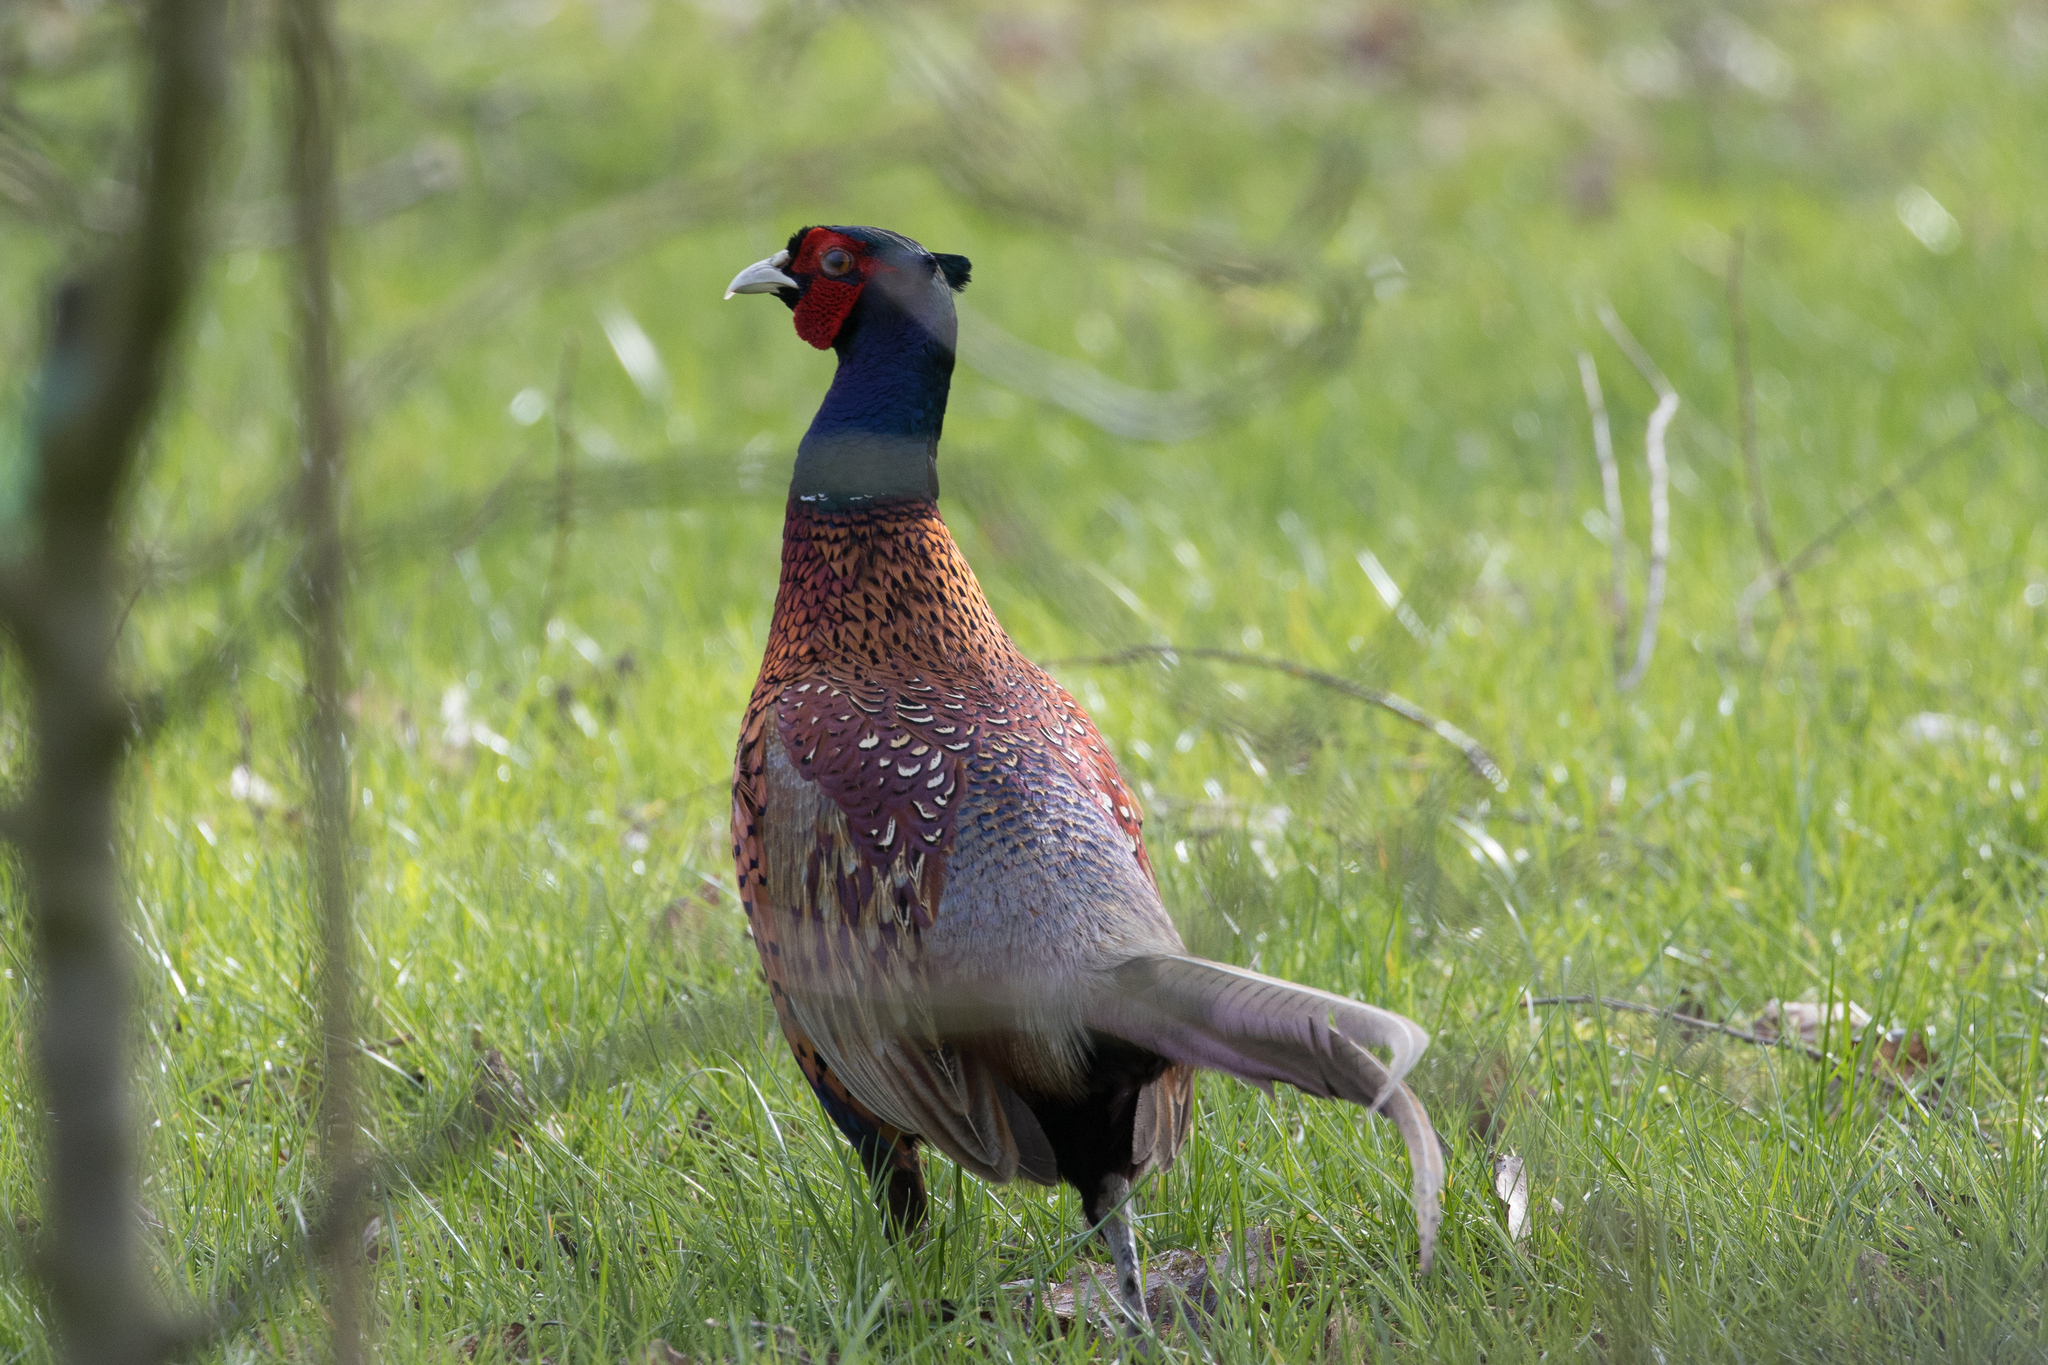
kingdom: Animalia
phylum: Chordata
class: Aves
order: Galliformes
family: Phasianidae
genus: Phasianus
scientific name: Phasianus colchicus
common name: Common pheasant
